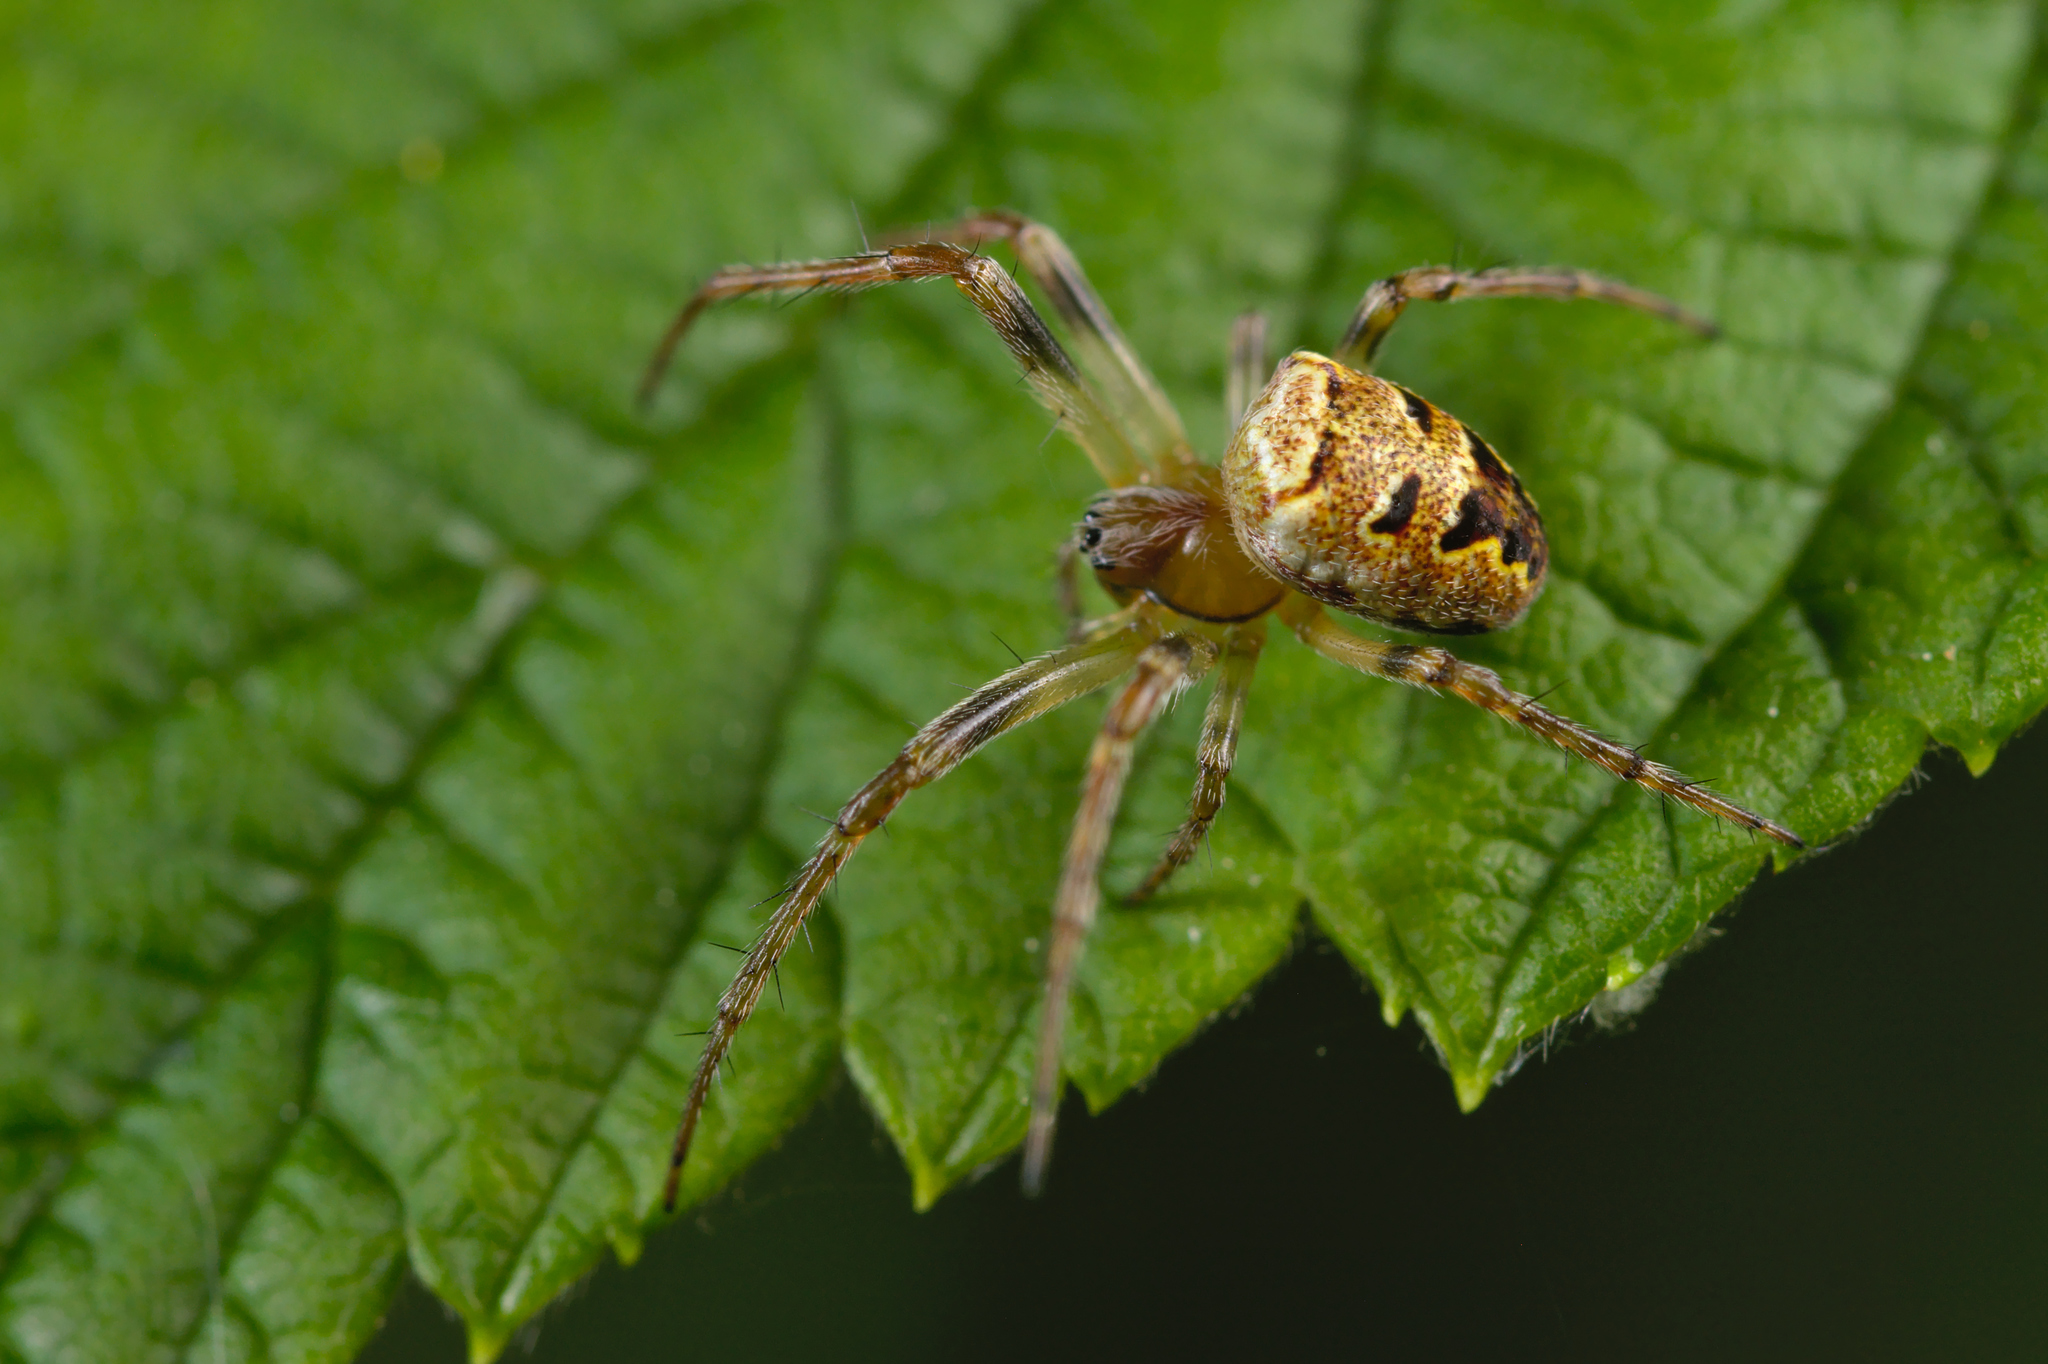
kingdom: Animalia
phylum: Arthropoda
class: Arachnida
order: Araneae
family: Araneidae
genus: Zilla
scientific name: Zilla diodia
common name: Zilla diodia
